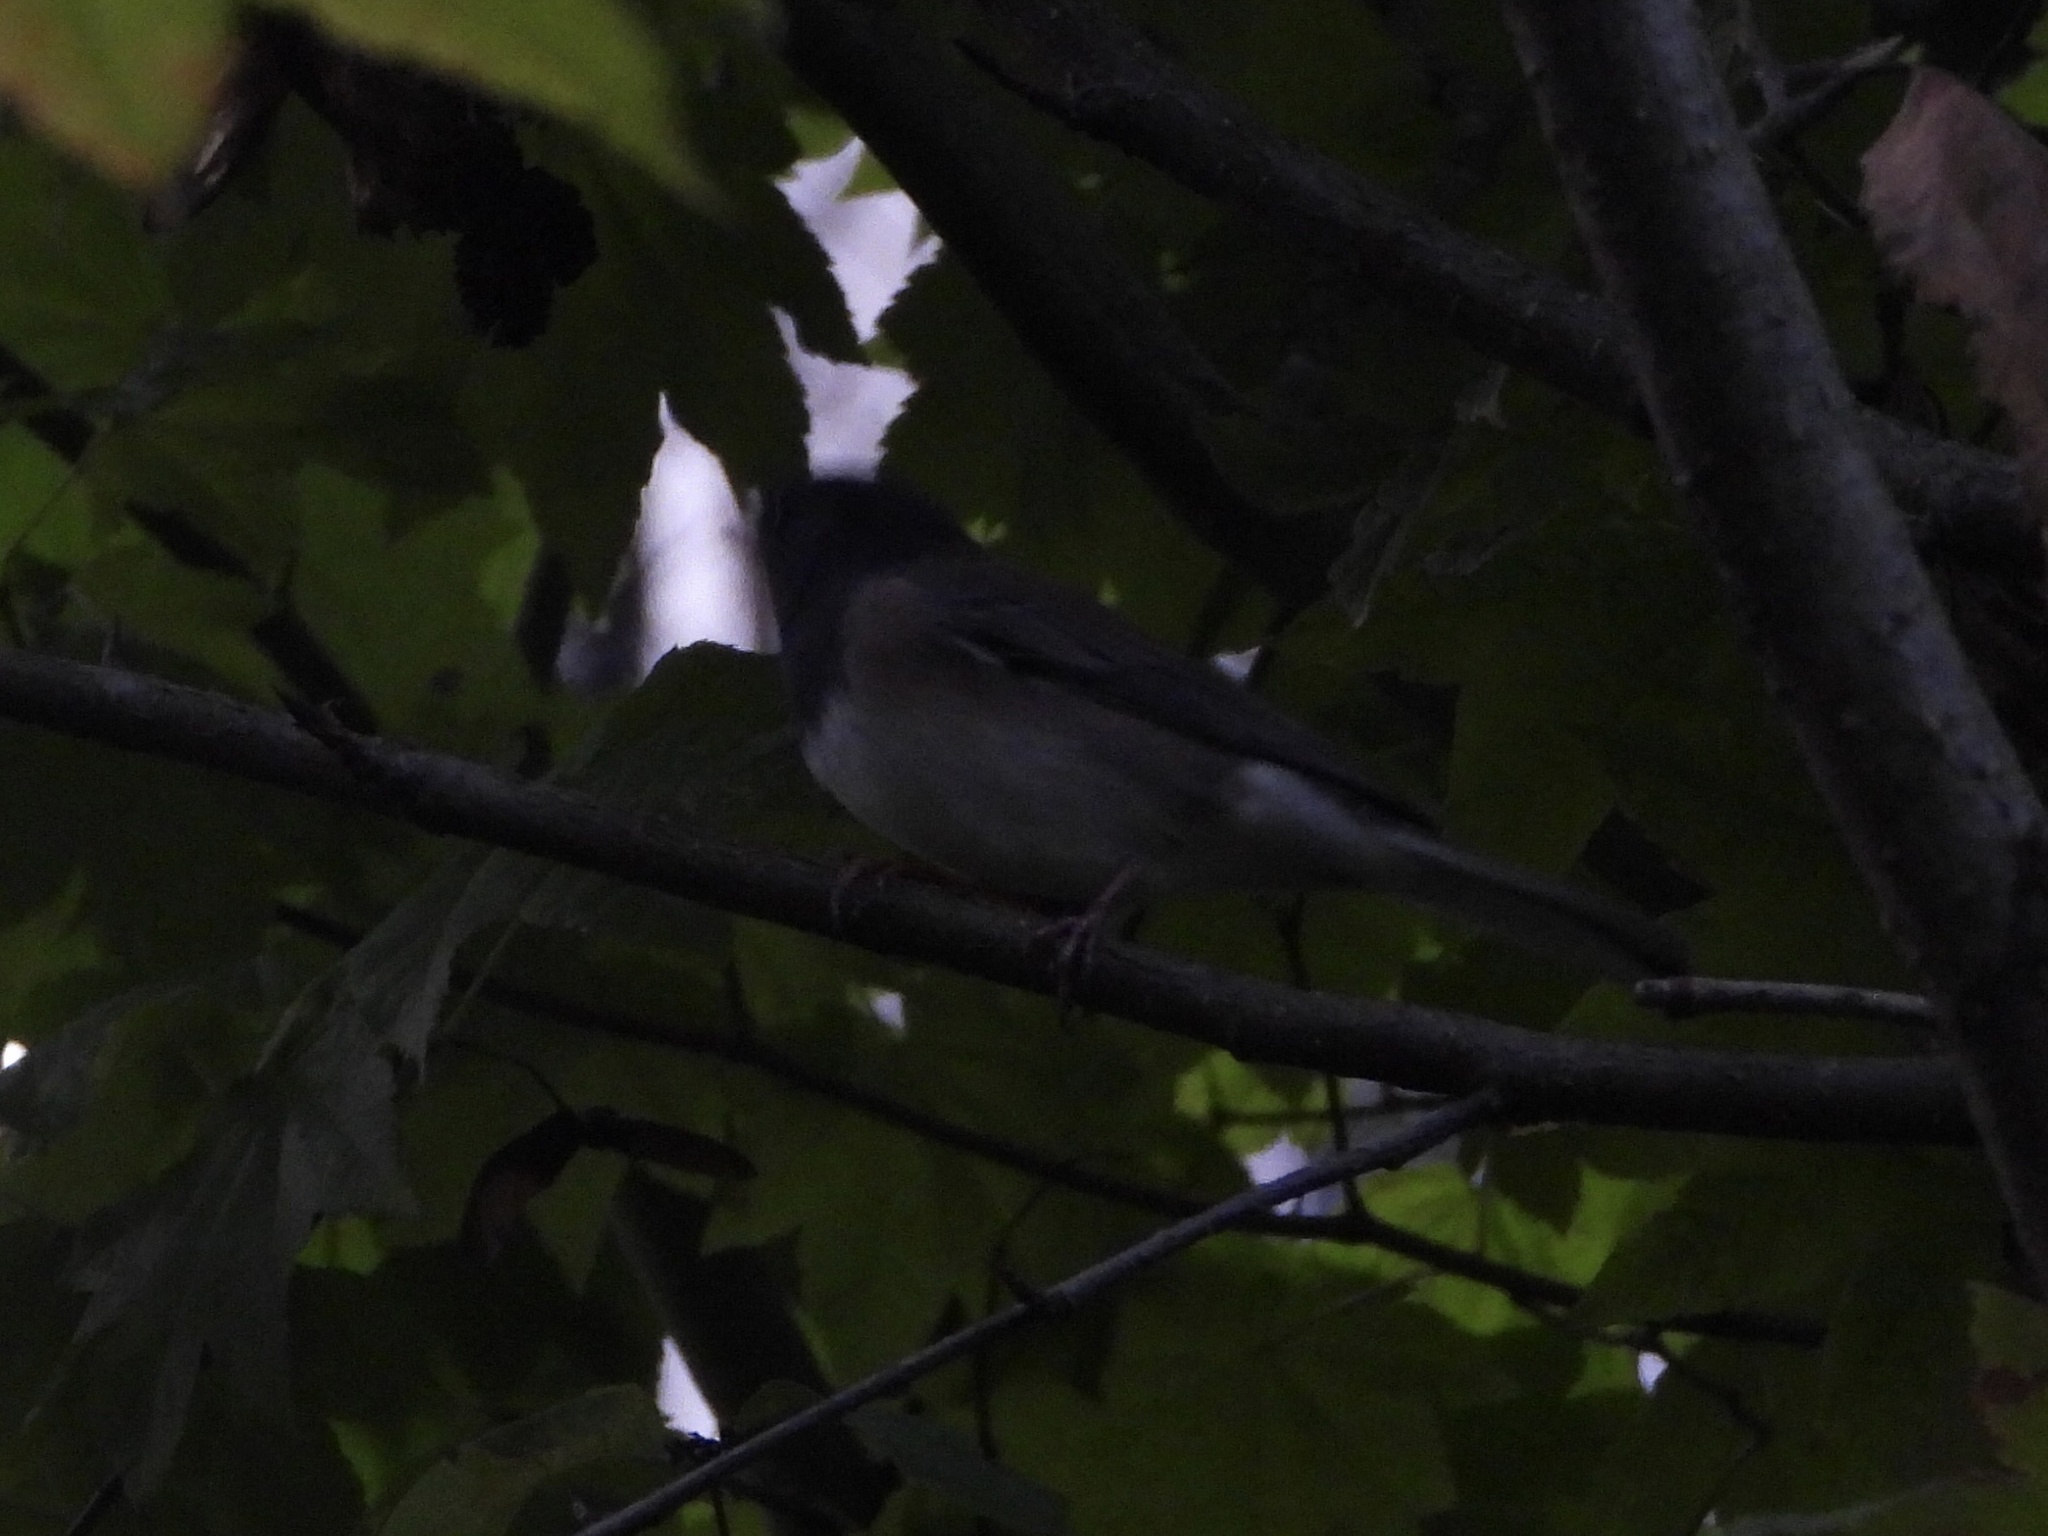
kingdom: Animalia
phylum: Chordata
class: Aves
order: Passeriformes
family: Passerellidae
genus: Junco
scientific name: Junco hyemalis
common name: Dark-eyed junco
